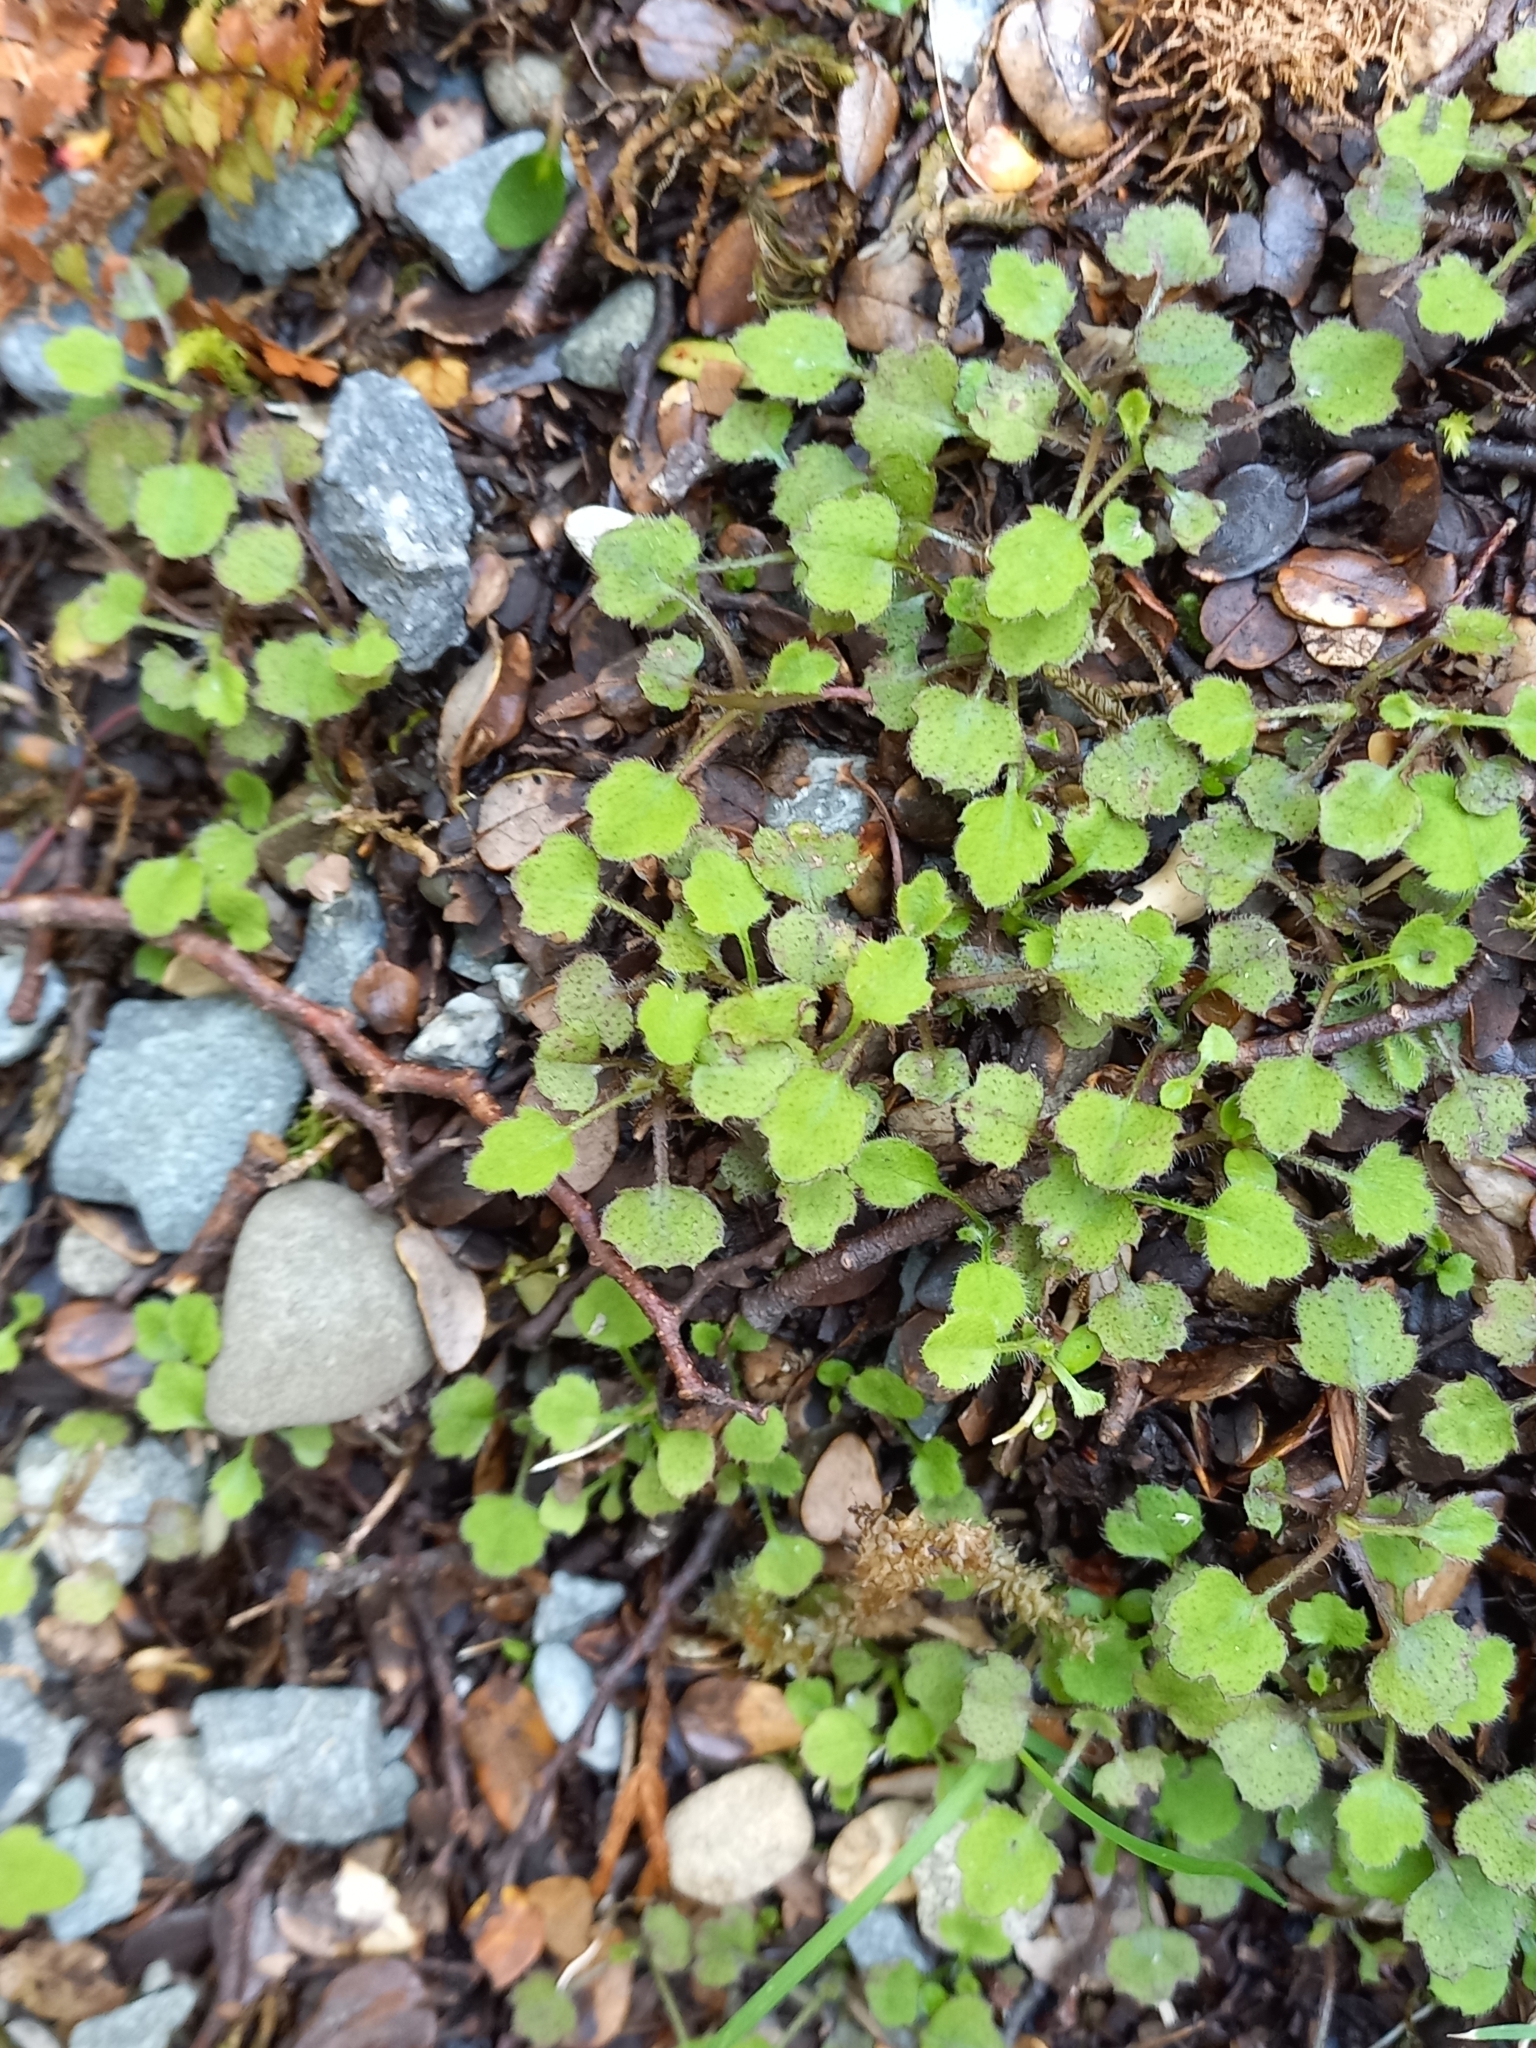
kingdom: Plantae
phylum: Tracheophyta
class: Magnoliopsida
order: Asterales
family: Asteraceae
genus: Lagenophora
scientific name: Lagenophora strangulata
